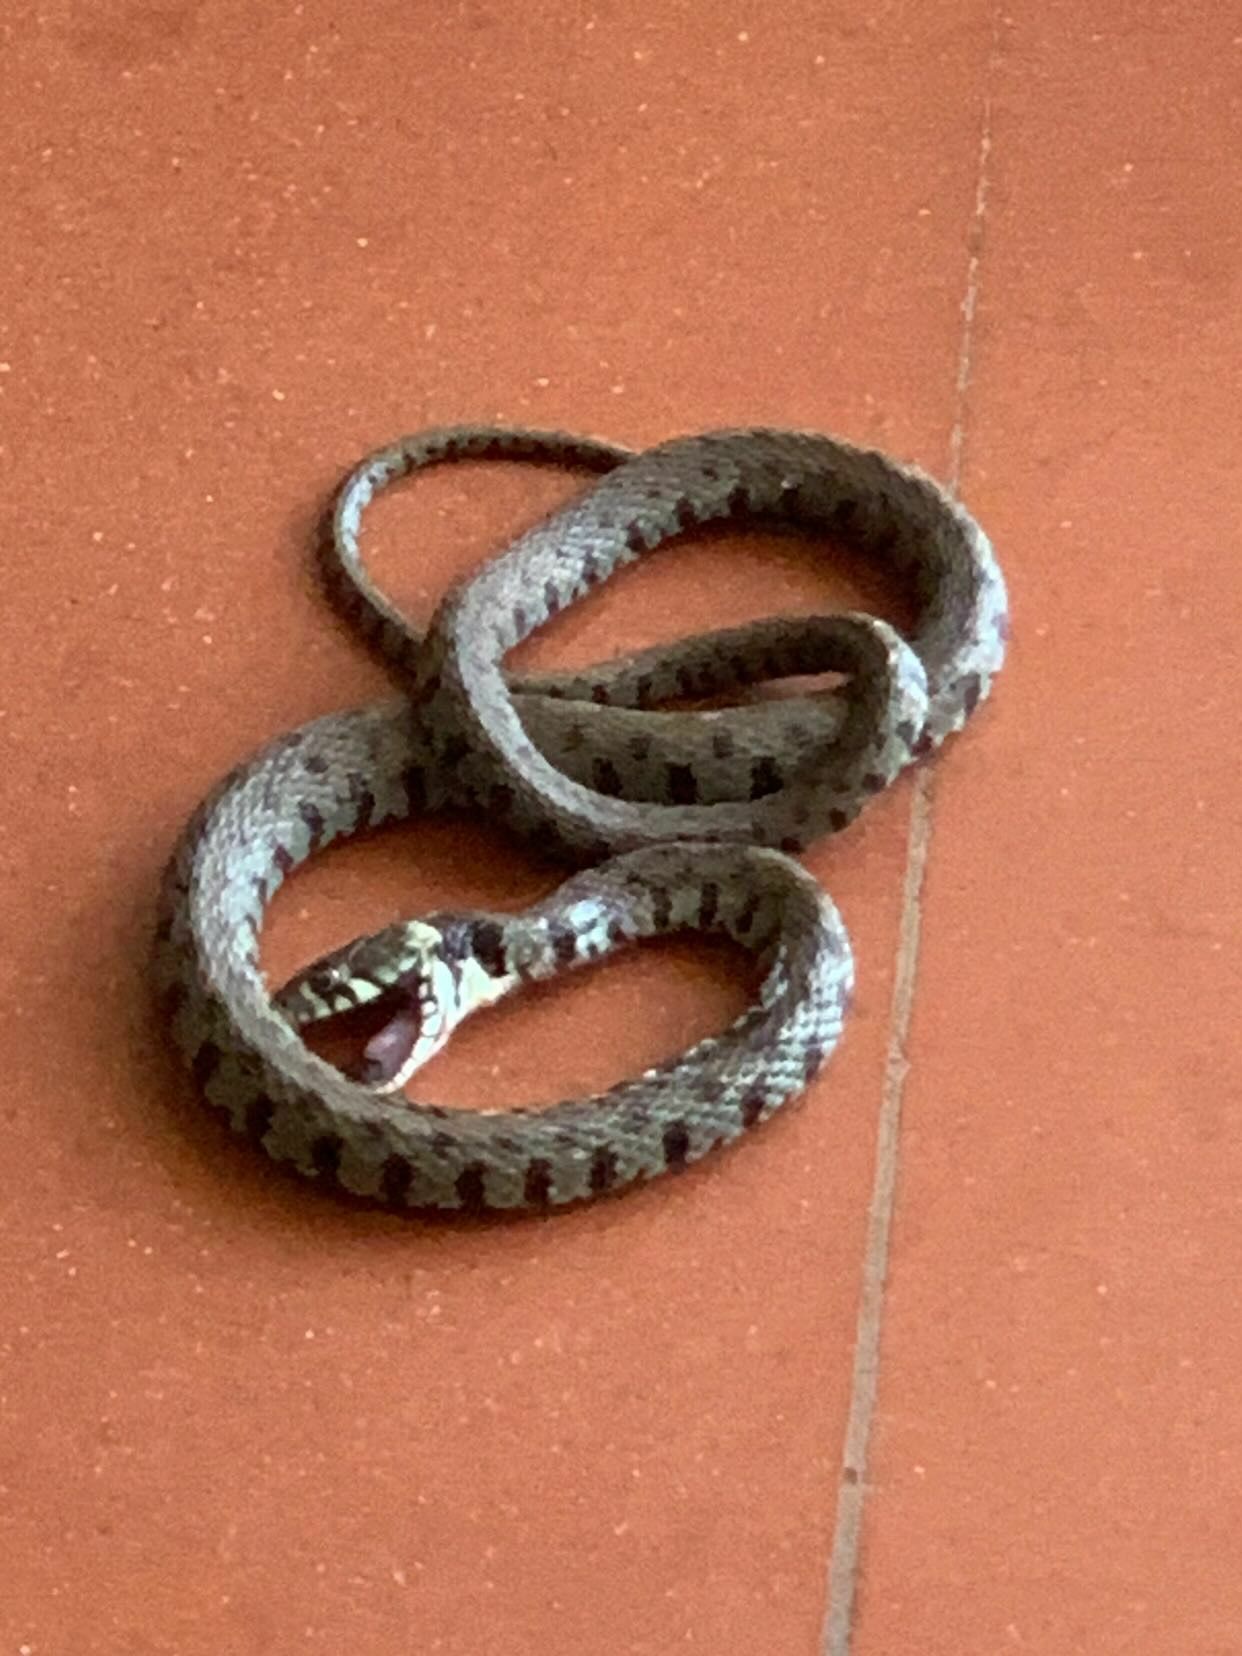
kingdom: Animalia
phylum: Chordata
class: Squamata
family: Colubridae
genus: Natrix
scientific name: Natrix helvetica
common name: Banded grass snake
